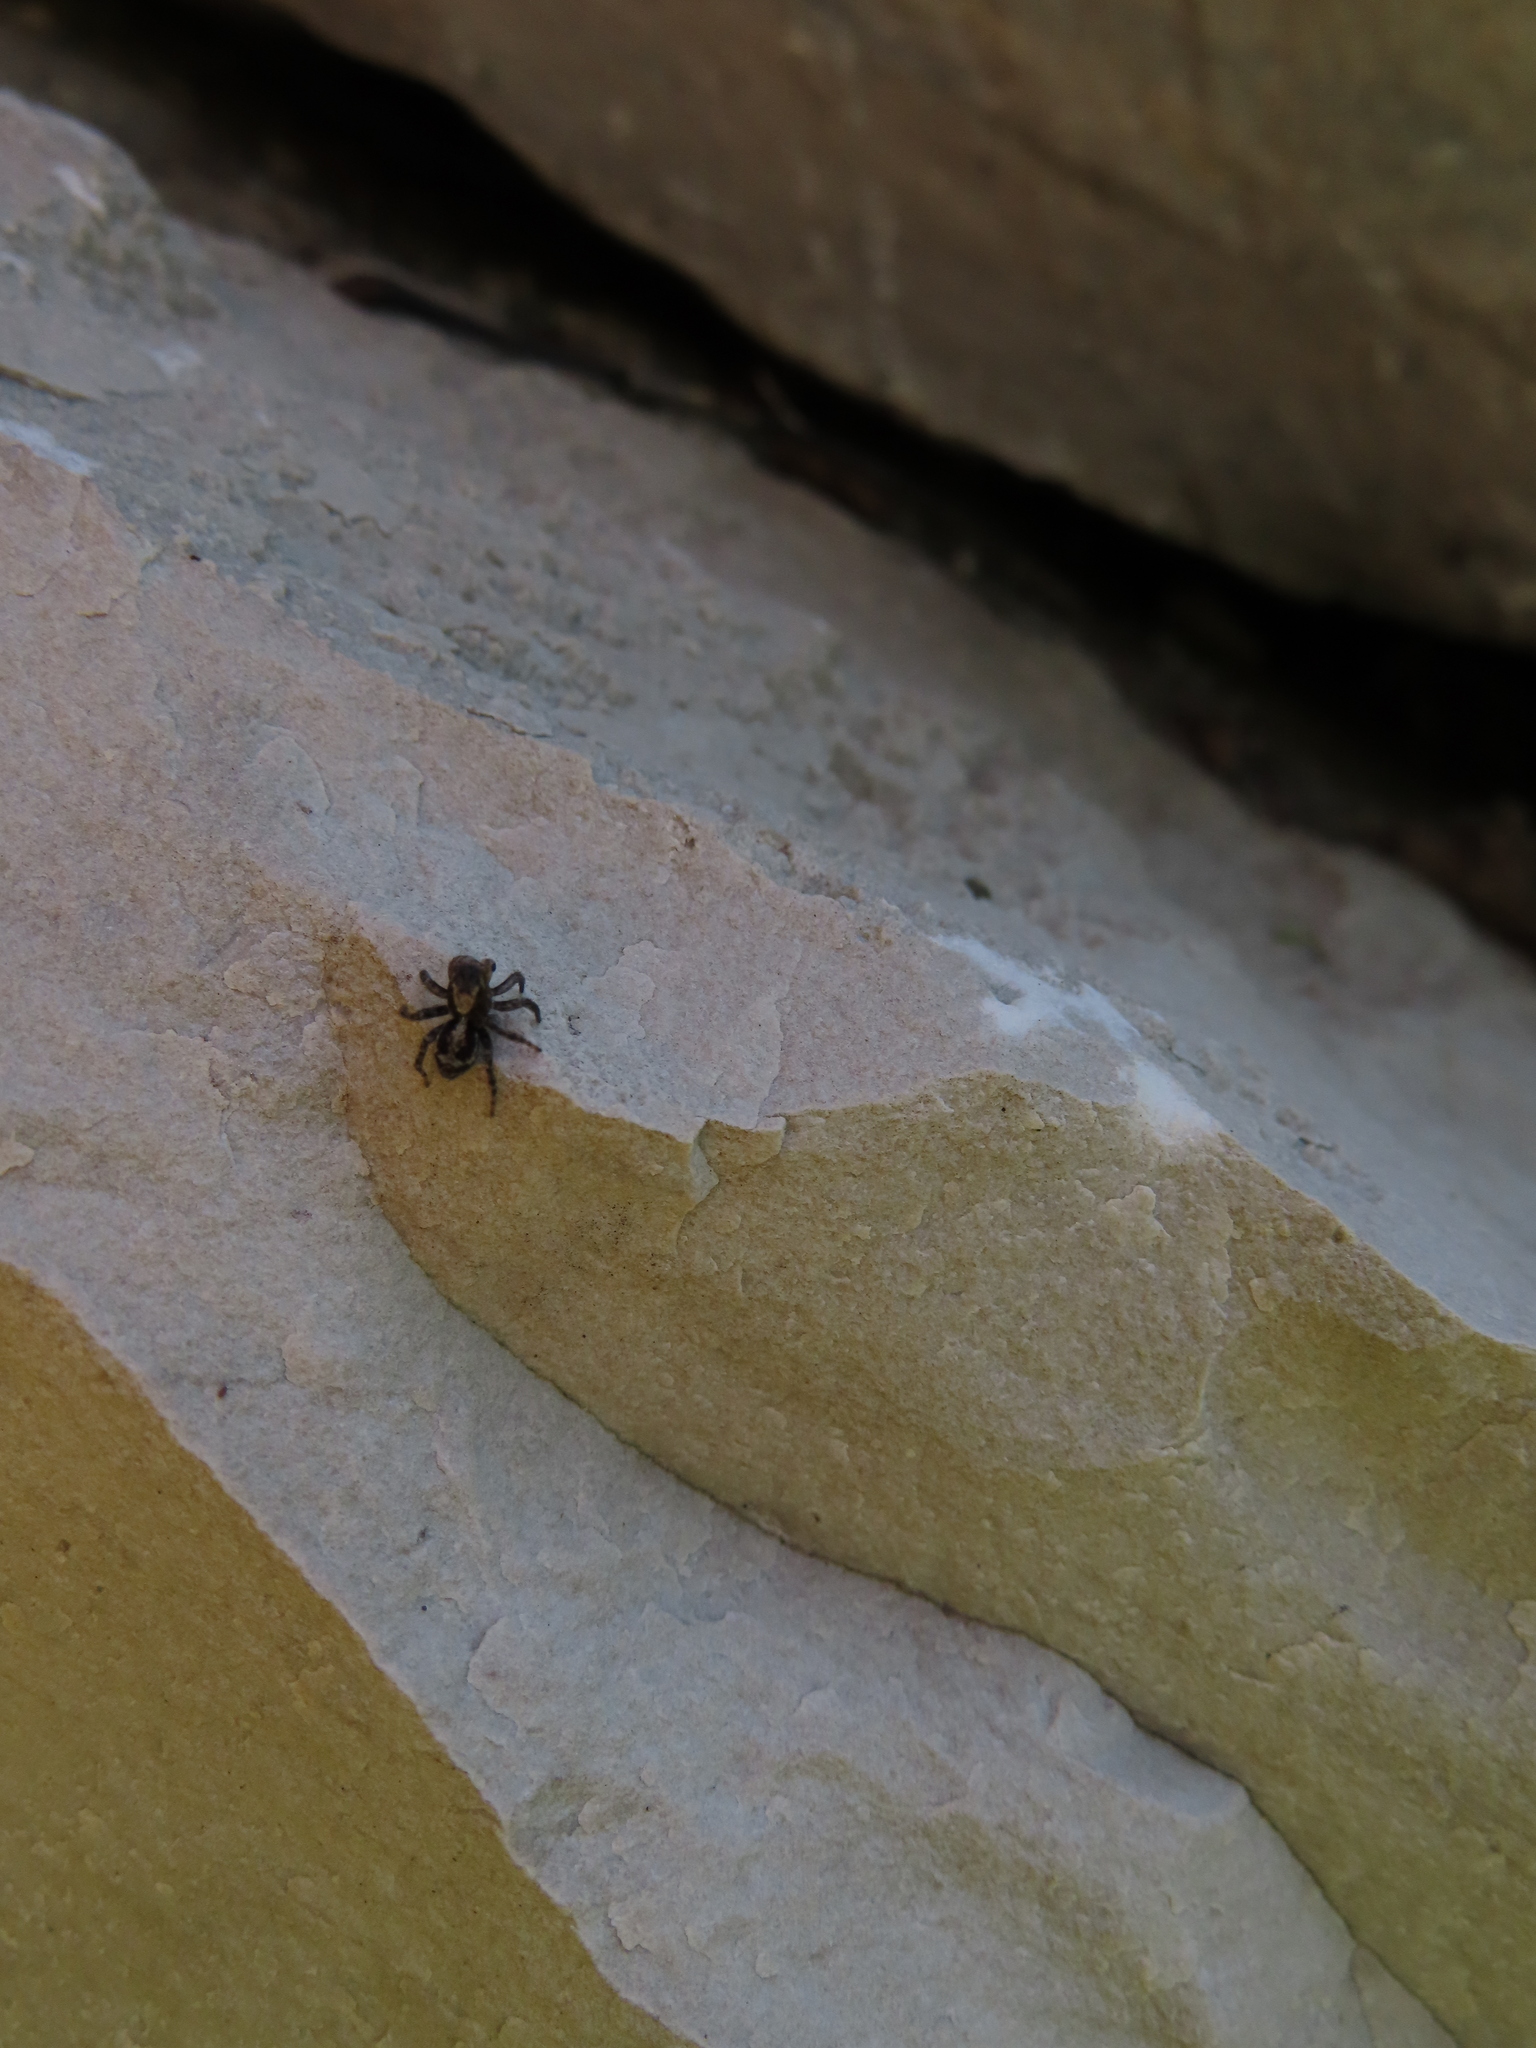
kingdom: Animalia
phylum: Arthropoda
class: Arachnida
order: Araneae
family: Salticidae
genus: Naphrys
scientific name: Naphrys pulex
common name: Flea jumping spider
